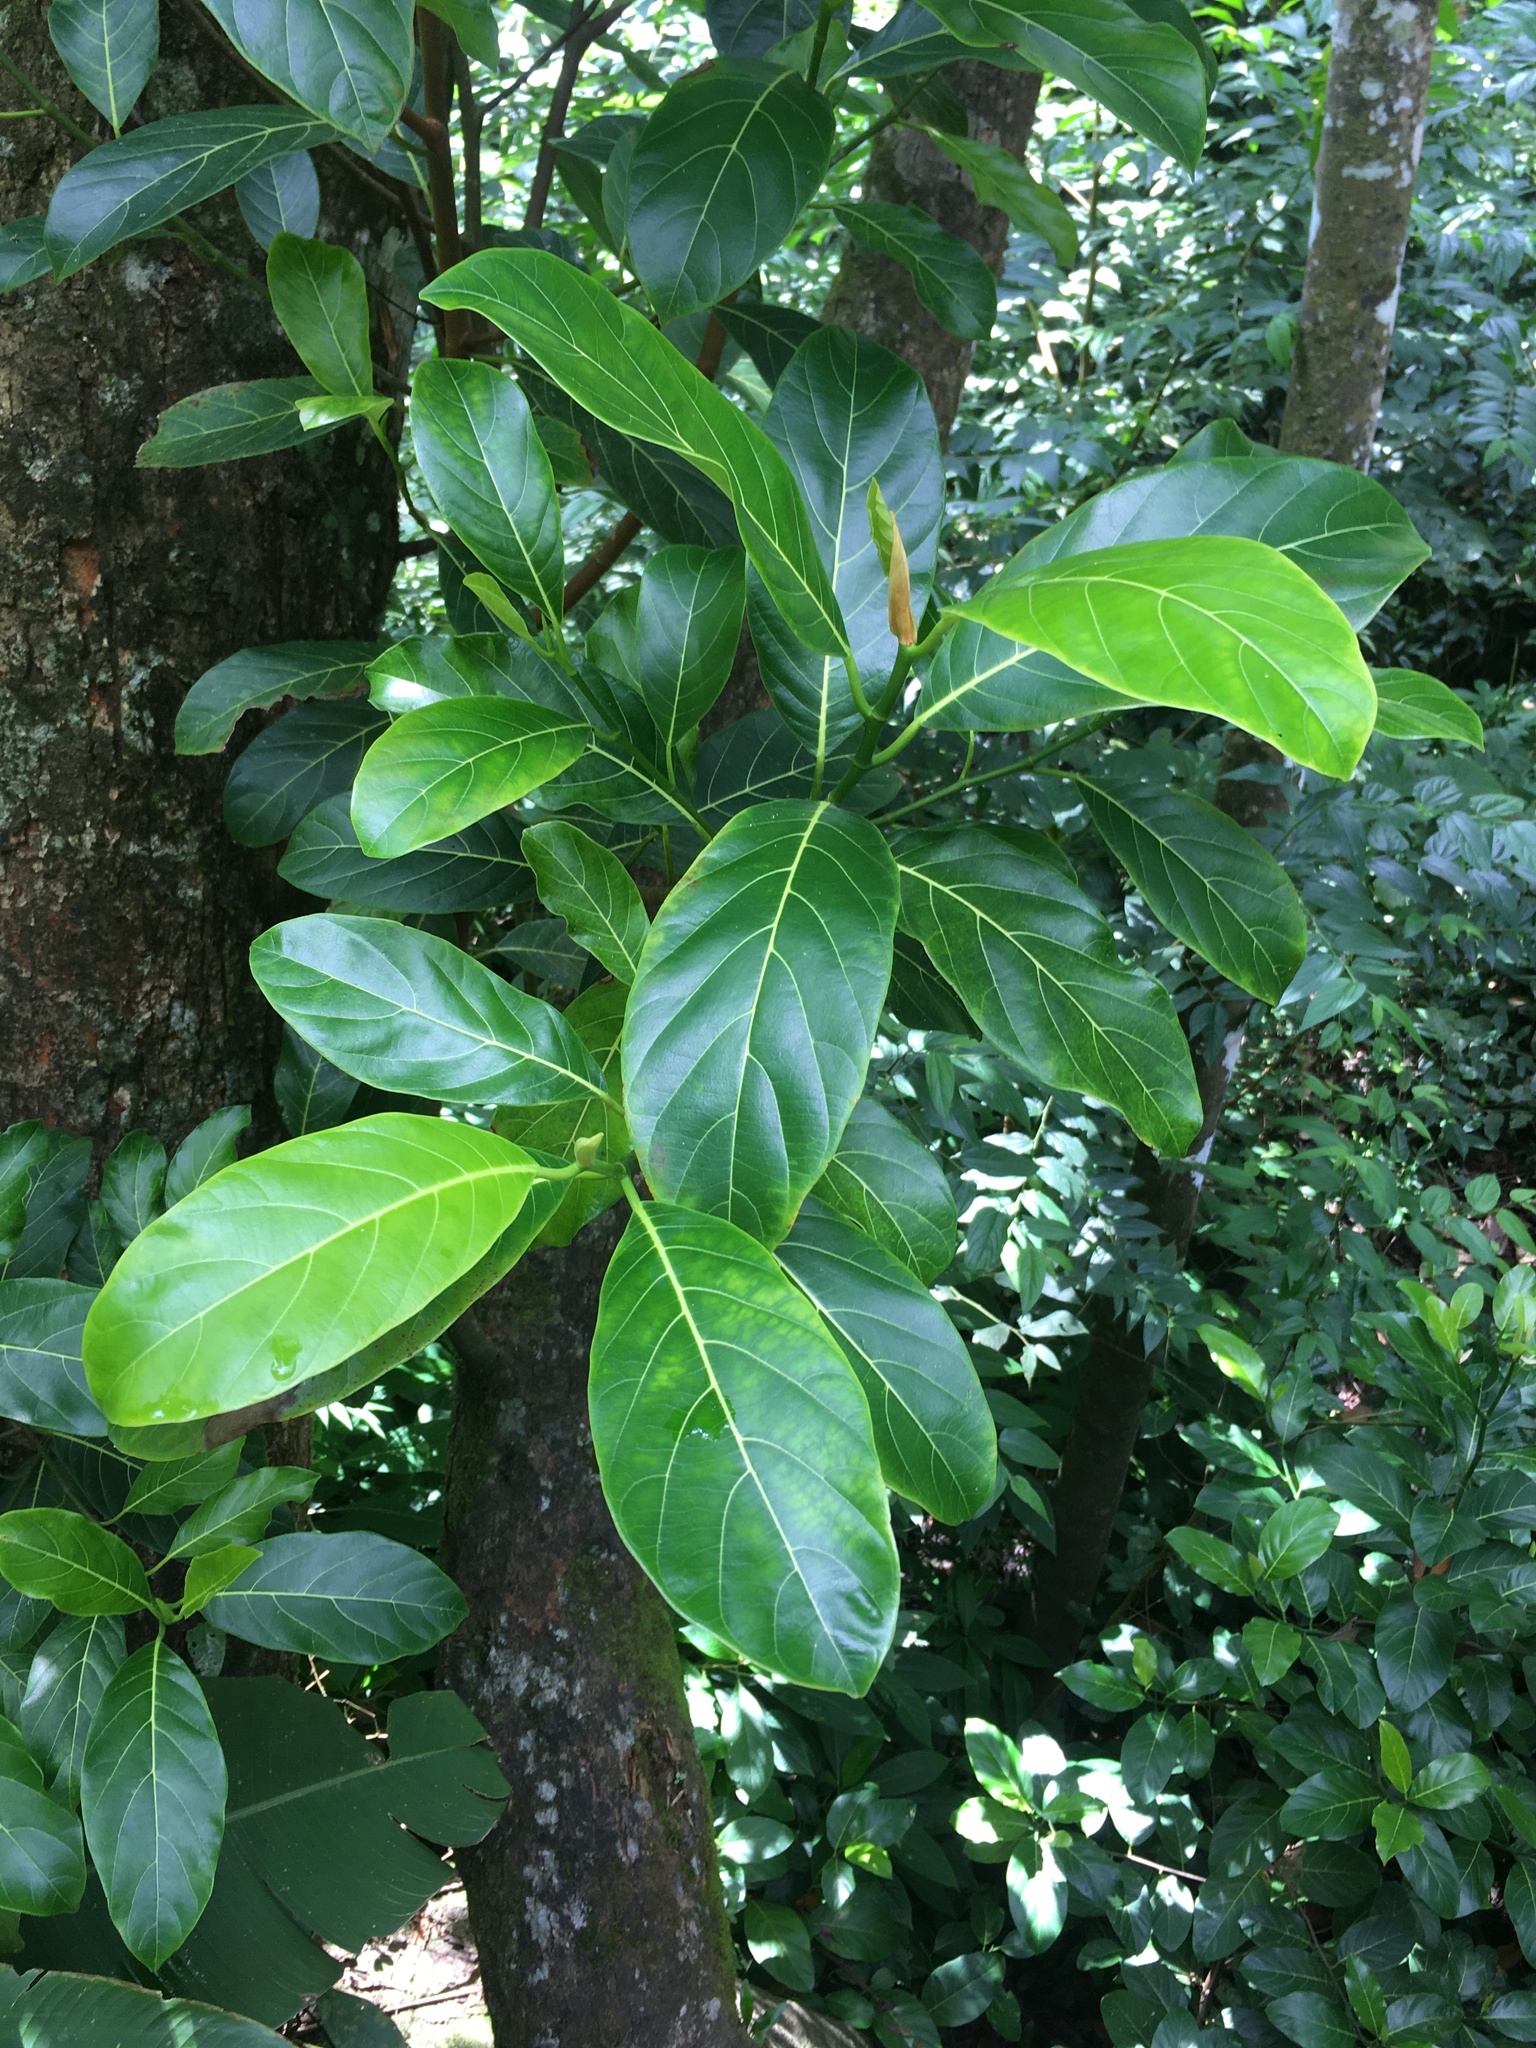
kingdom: Plantae
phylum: Tracheophyta
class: Magnoliopsida
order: Rosales
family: Moraceae
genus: Artocarpus
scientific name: Artocarpus heterophyllus
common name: Jackfruit
